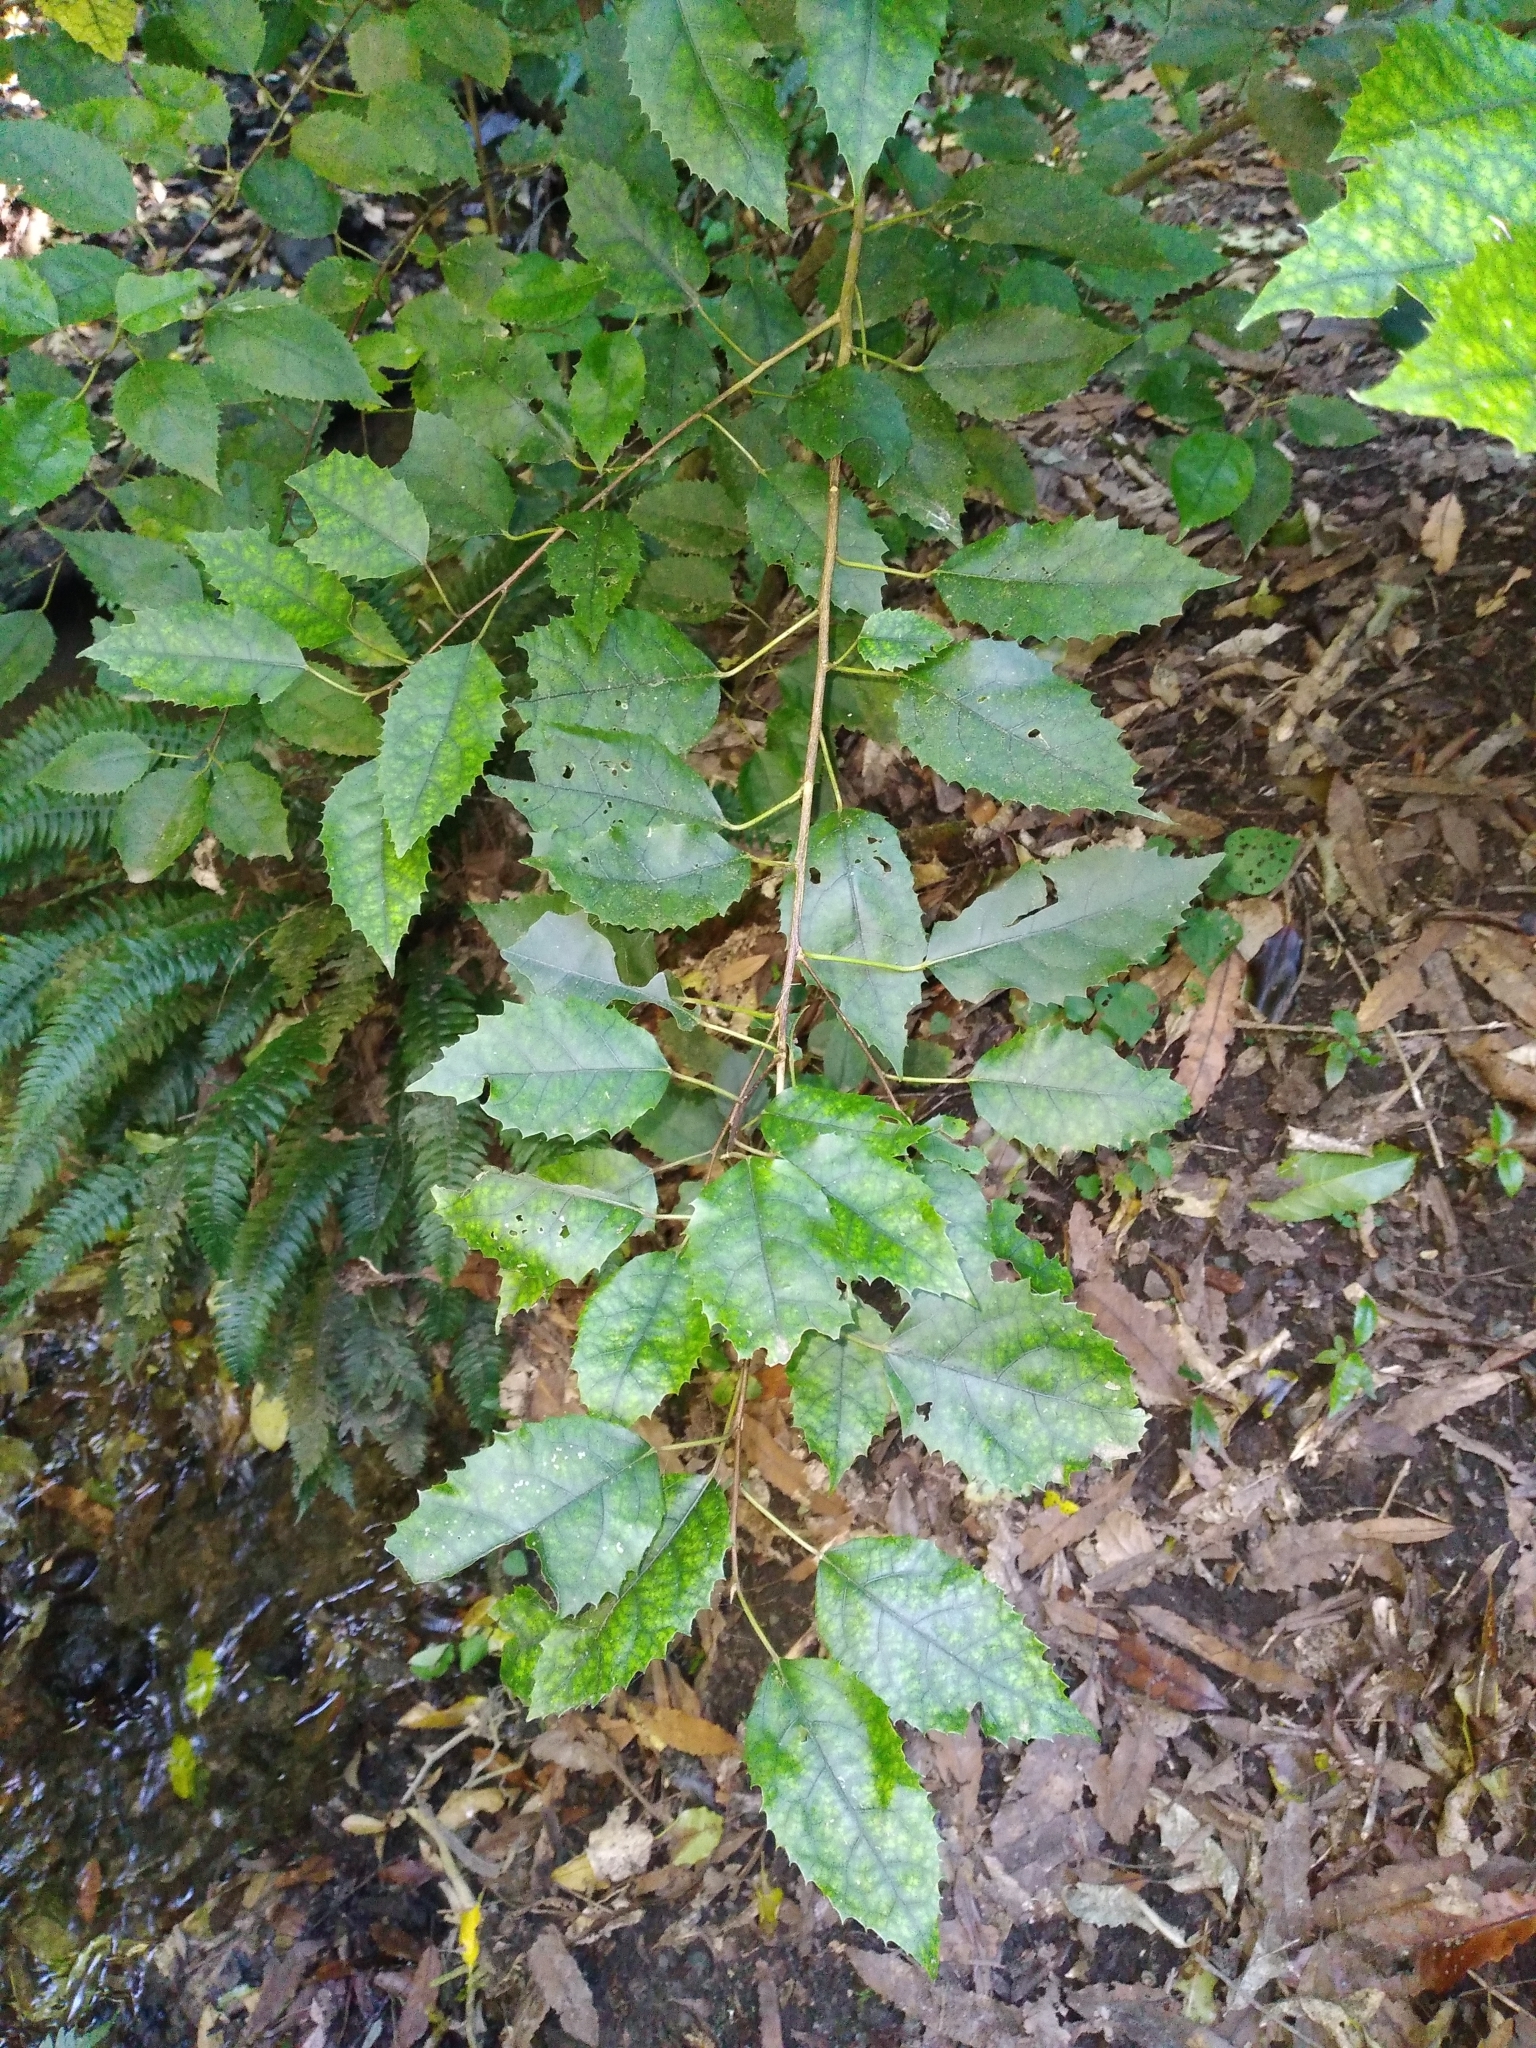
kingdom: Plantae
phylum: Tracheophyta
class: Magnoliopsida
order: Malvales
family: Malvaceae
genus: Hoheria
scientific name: Hoheria populnea
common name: Lacebark
